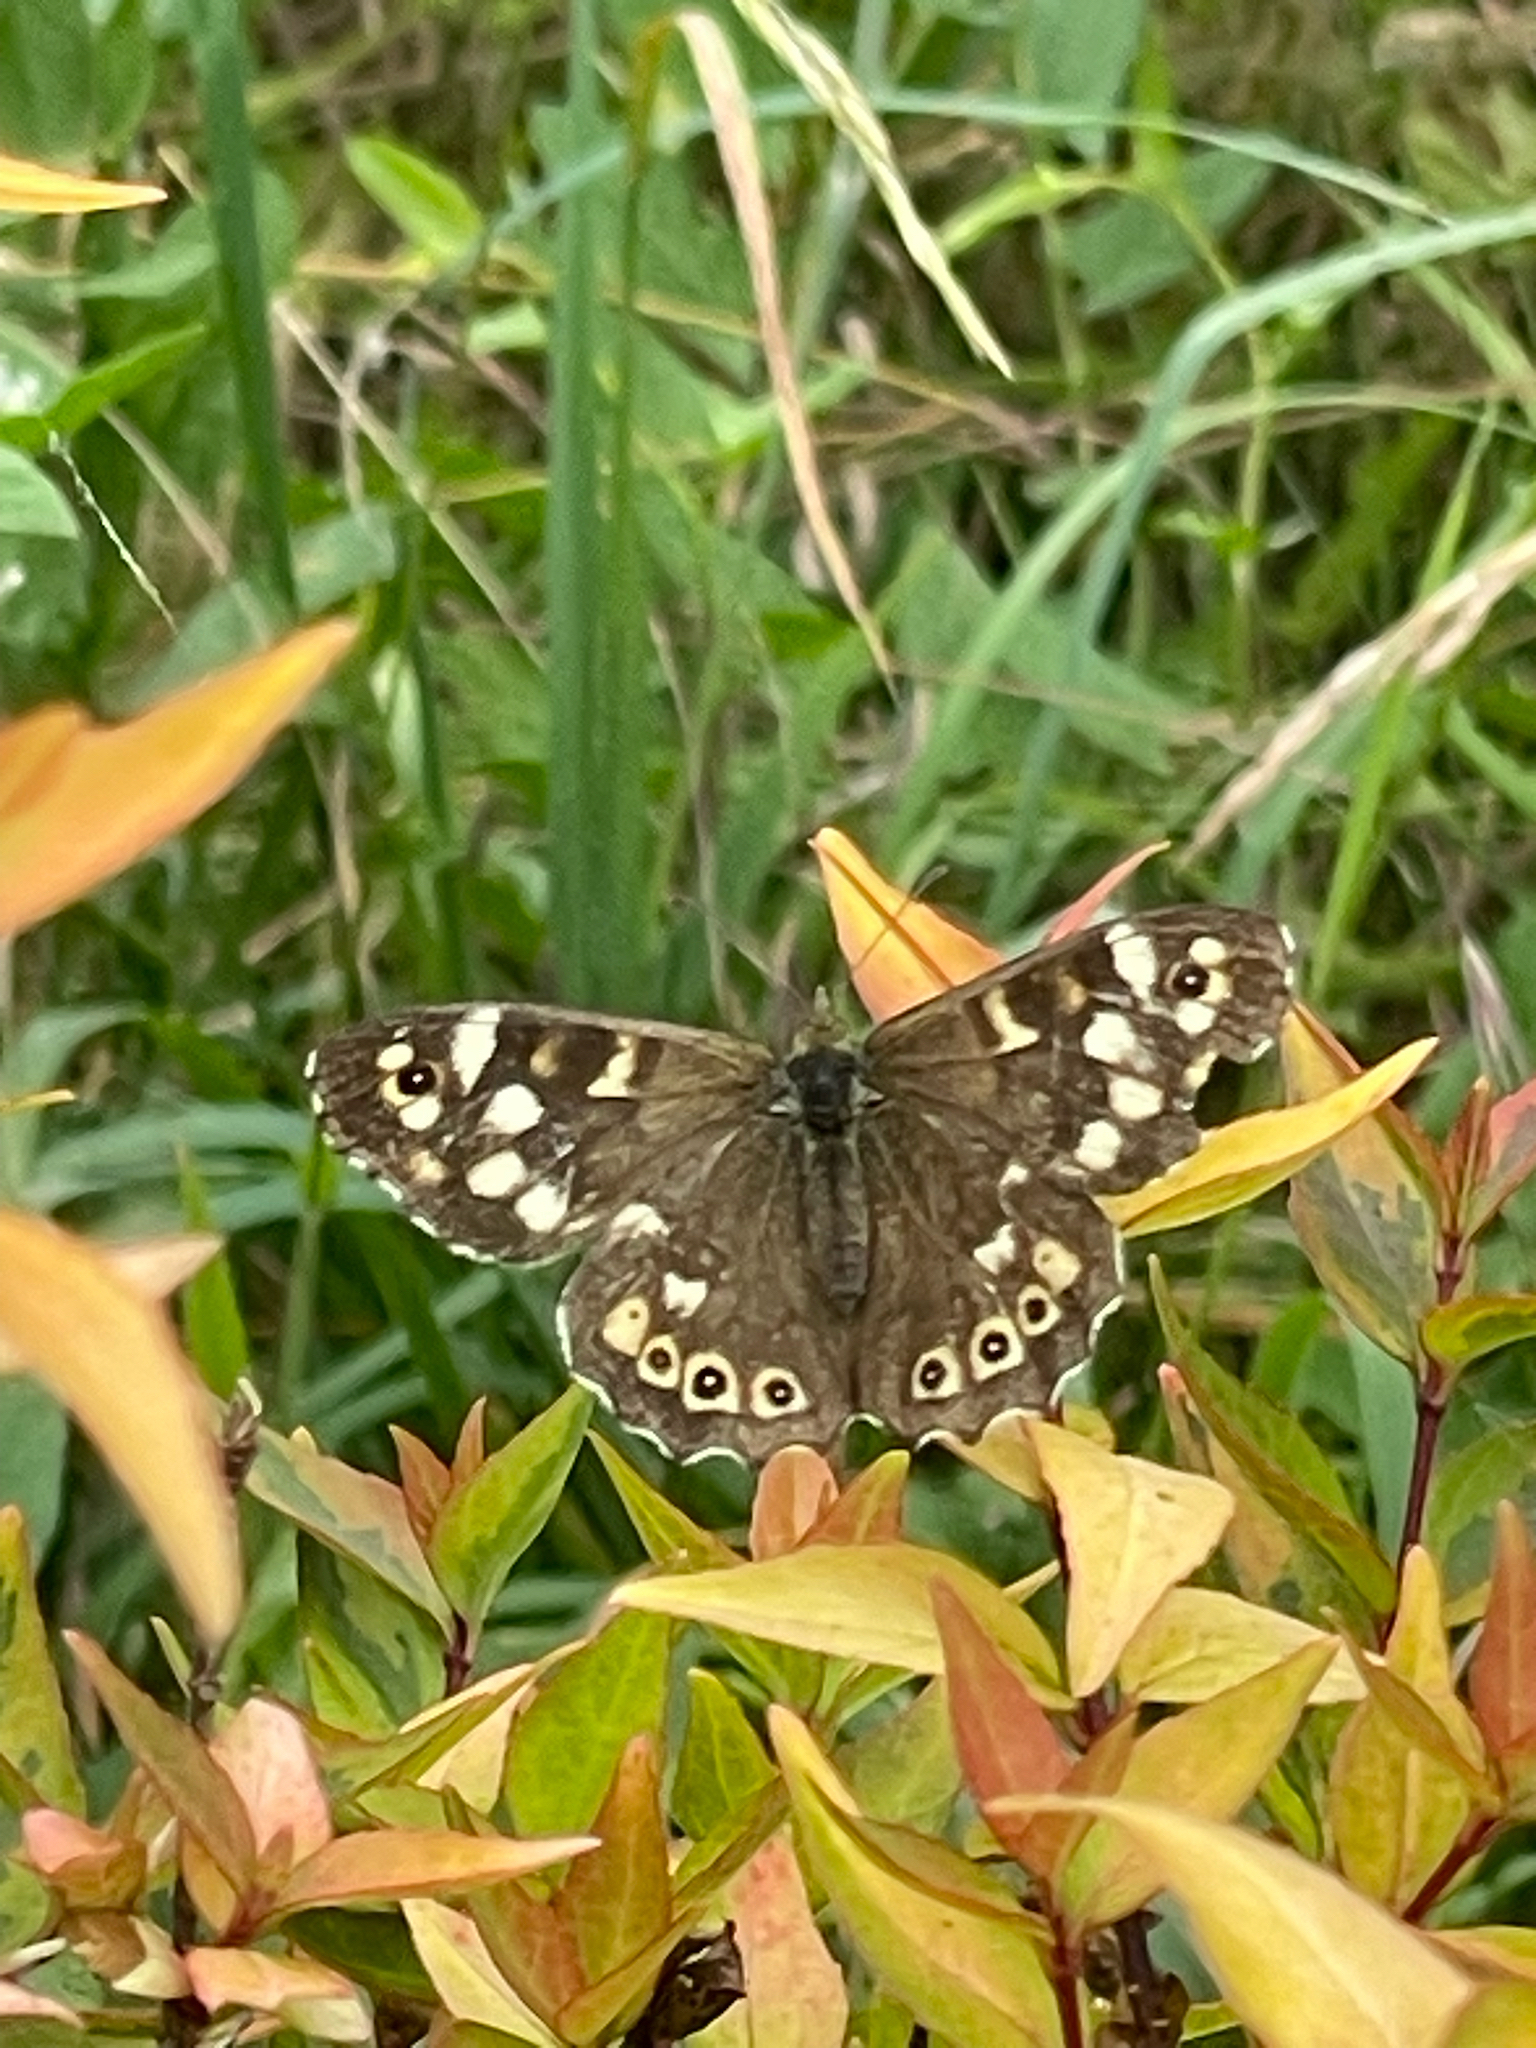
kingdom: Animalia
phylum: Arthropoda
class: Insecta
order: Lepidoptera
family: Nymphalidae
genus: Pararge
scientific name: Pararge aegeria
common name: Speckled wood
